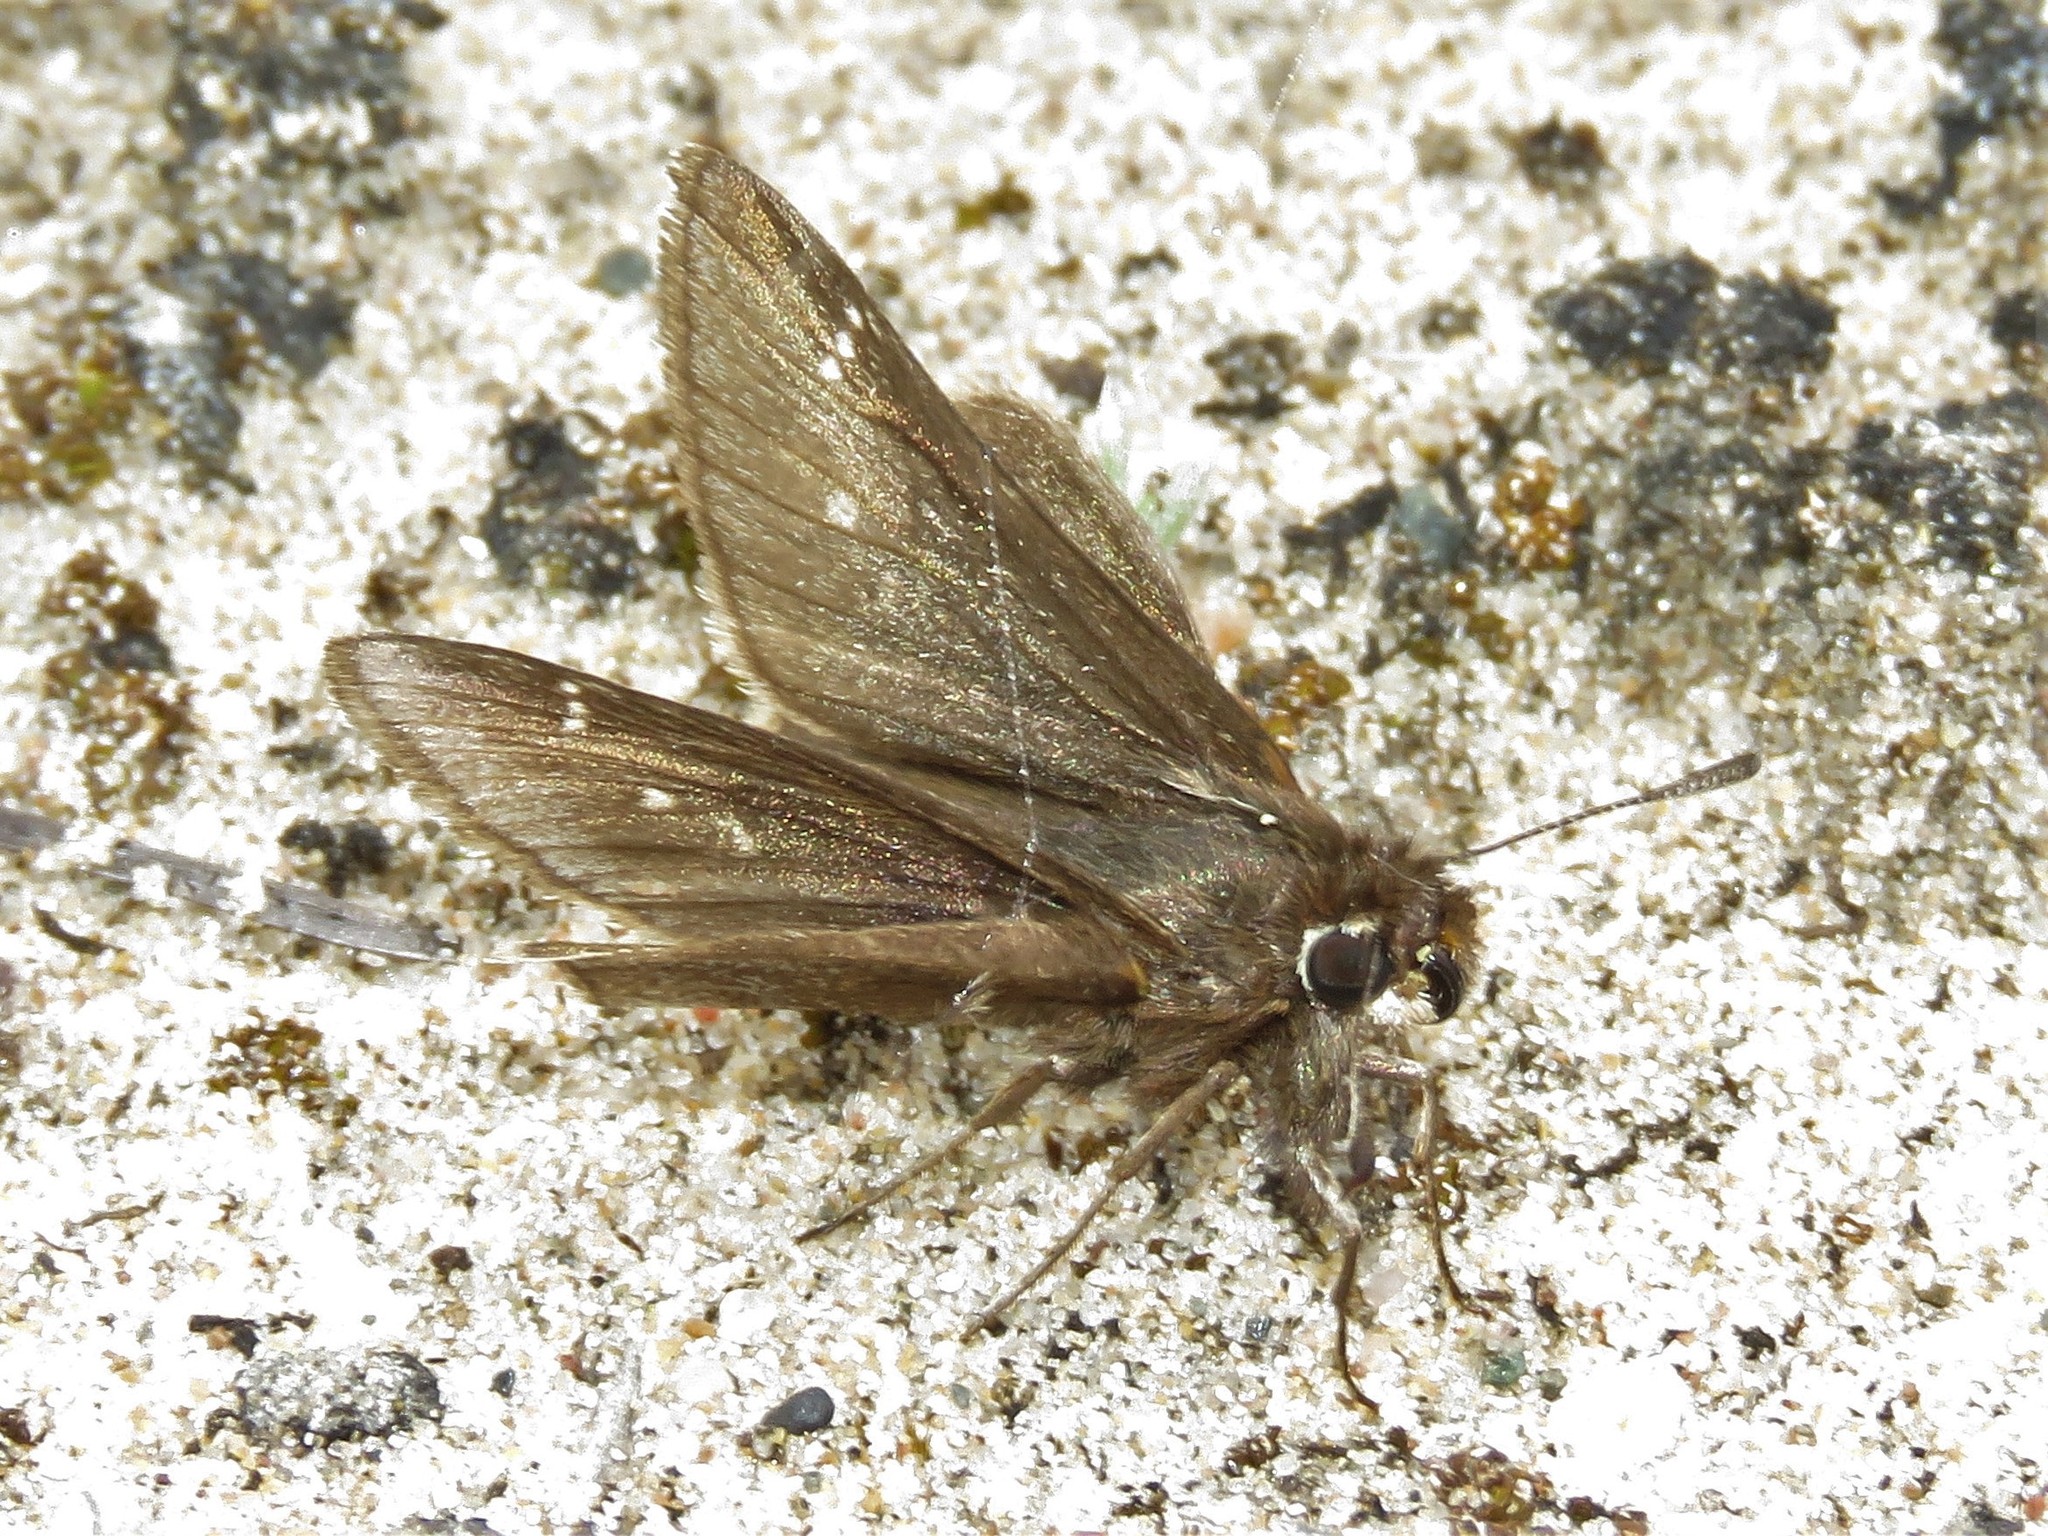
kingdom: Animalia
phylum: Arthropoda
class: Insecta
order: Lepidoptera
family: Hesperiidae
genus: Atrytonopsis
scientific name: Atrytonopsis hianna
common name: Dusted skipper
